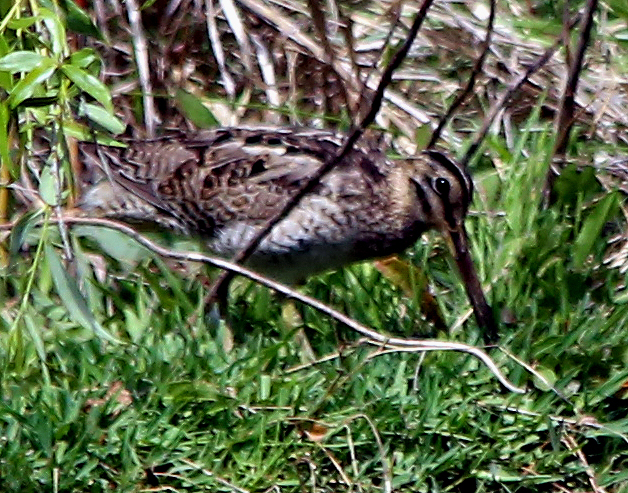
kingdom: Animalia
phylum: Chordata
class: Aves
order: Charadriiformes
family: Scolopacidae
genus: Gallinago
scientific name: Gallinago hardwickii
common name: Latham's snipe
